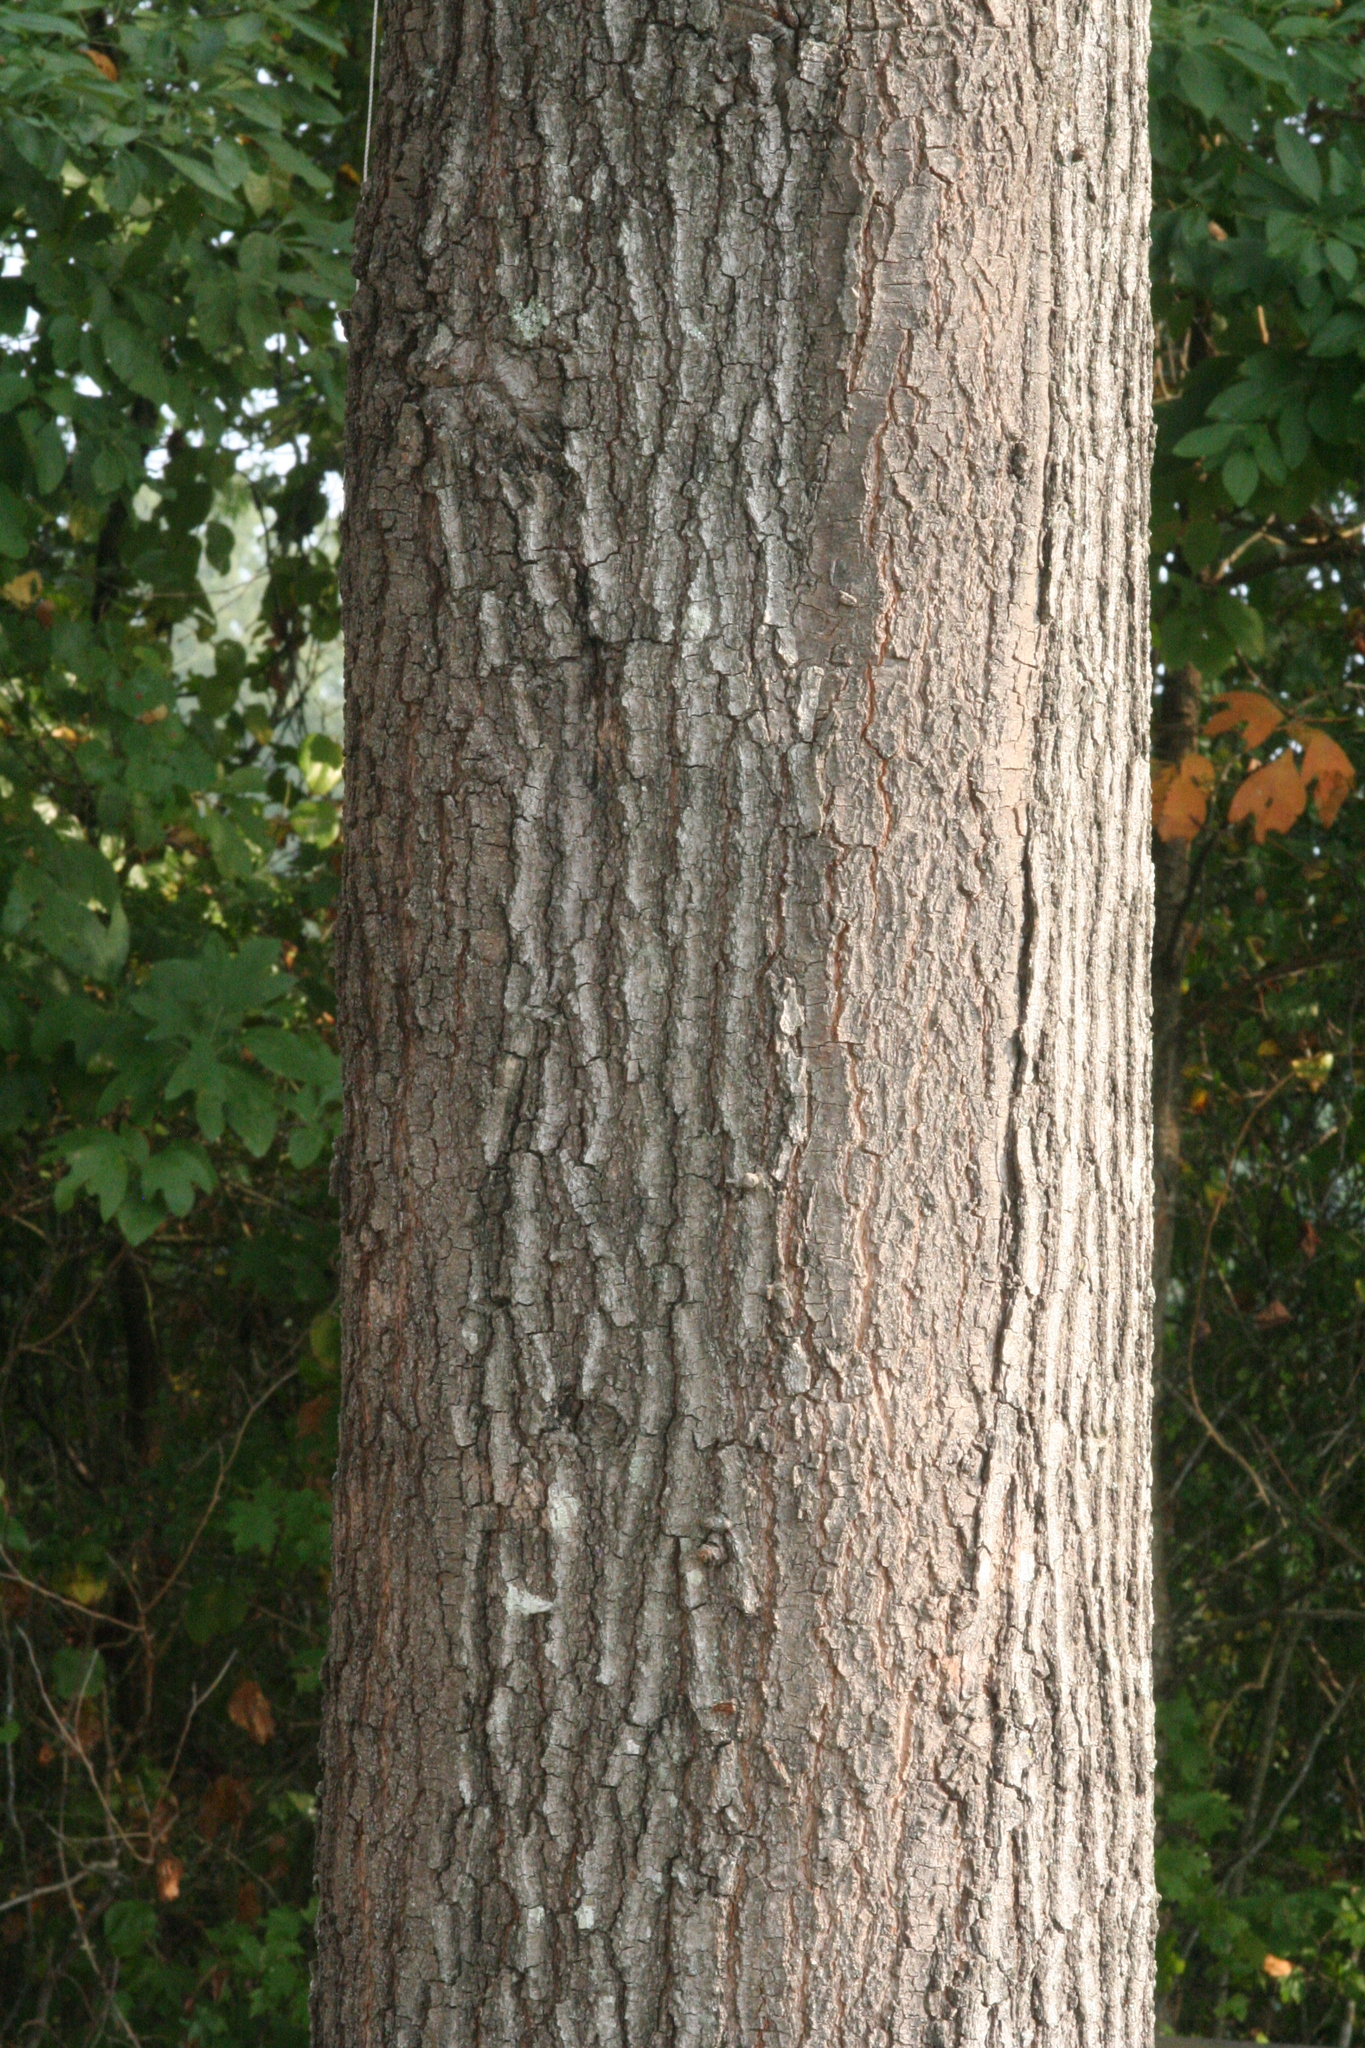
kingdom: Plantae
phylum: Tracheophyta
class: Magnoliopsida
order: Fagales
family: Fagaceae
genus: Quercus
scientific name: Quercus falcata
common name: Southern red oak
